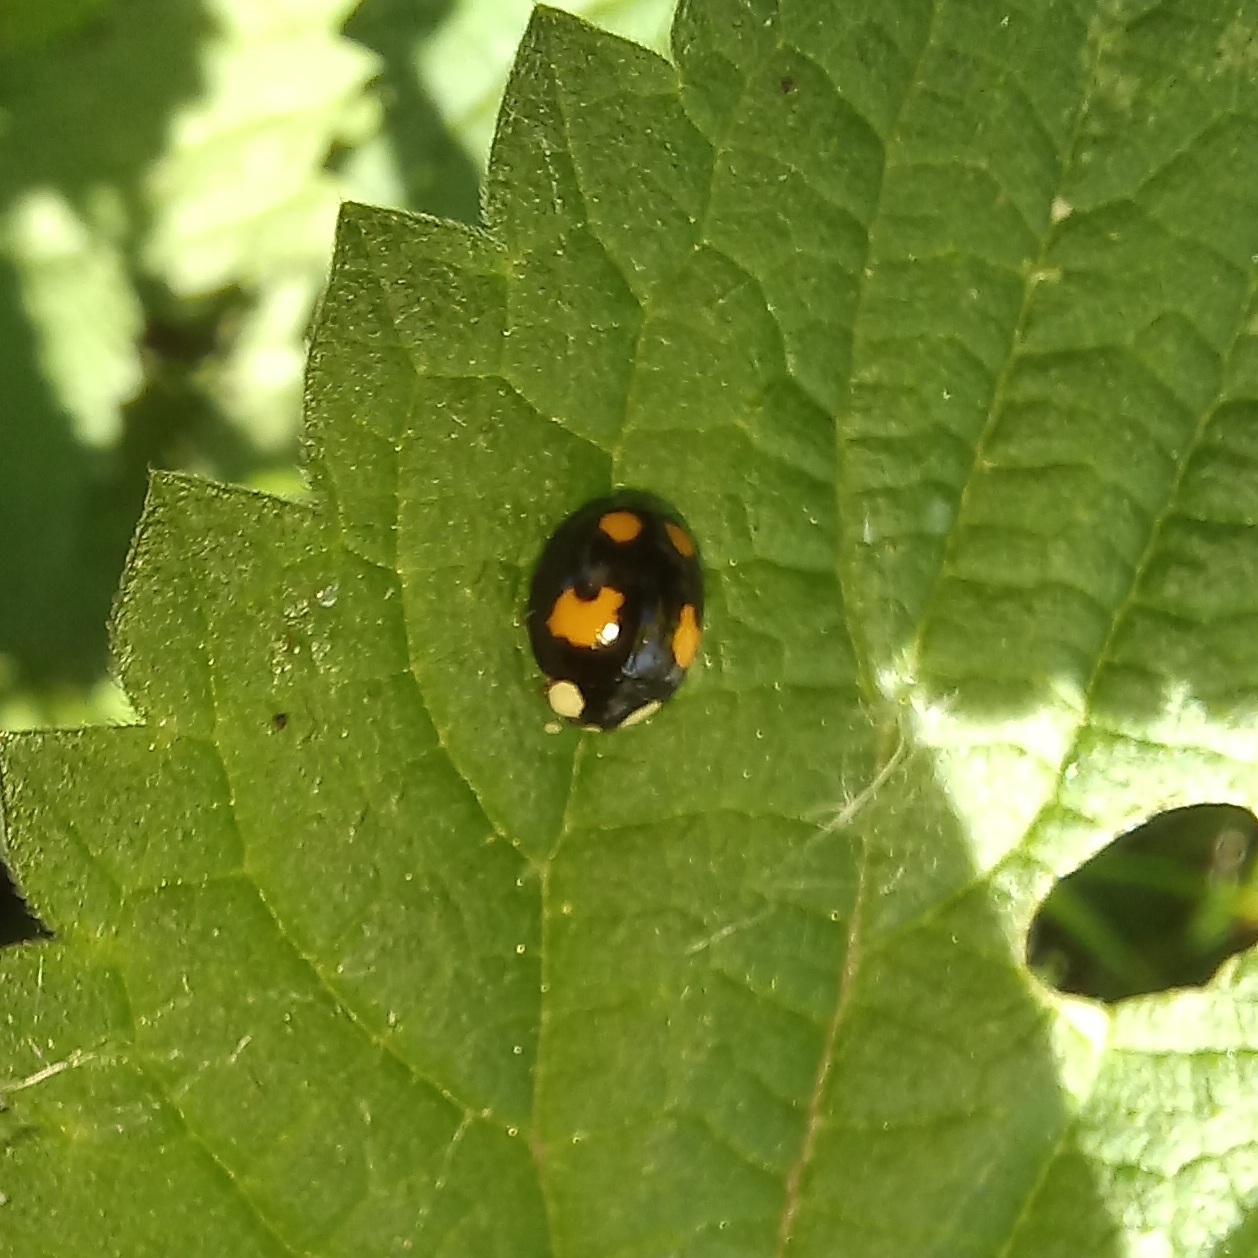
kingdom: Animalia
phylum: Arthropoda
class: Insecta
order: Coleoptera
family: Coccinellidae
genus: Harmonia
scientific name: Harmonia axyridis
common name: Harlequin ladybird
